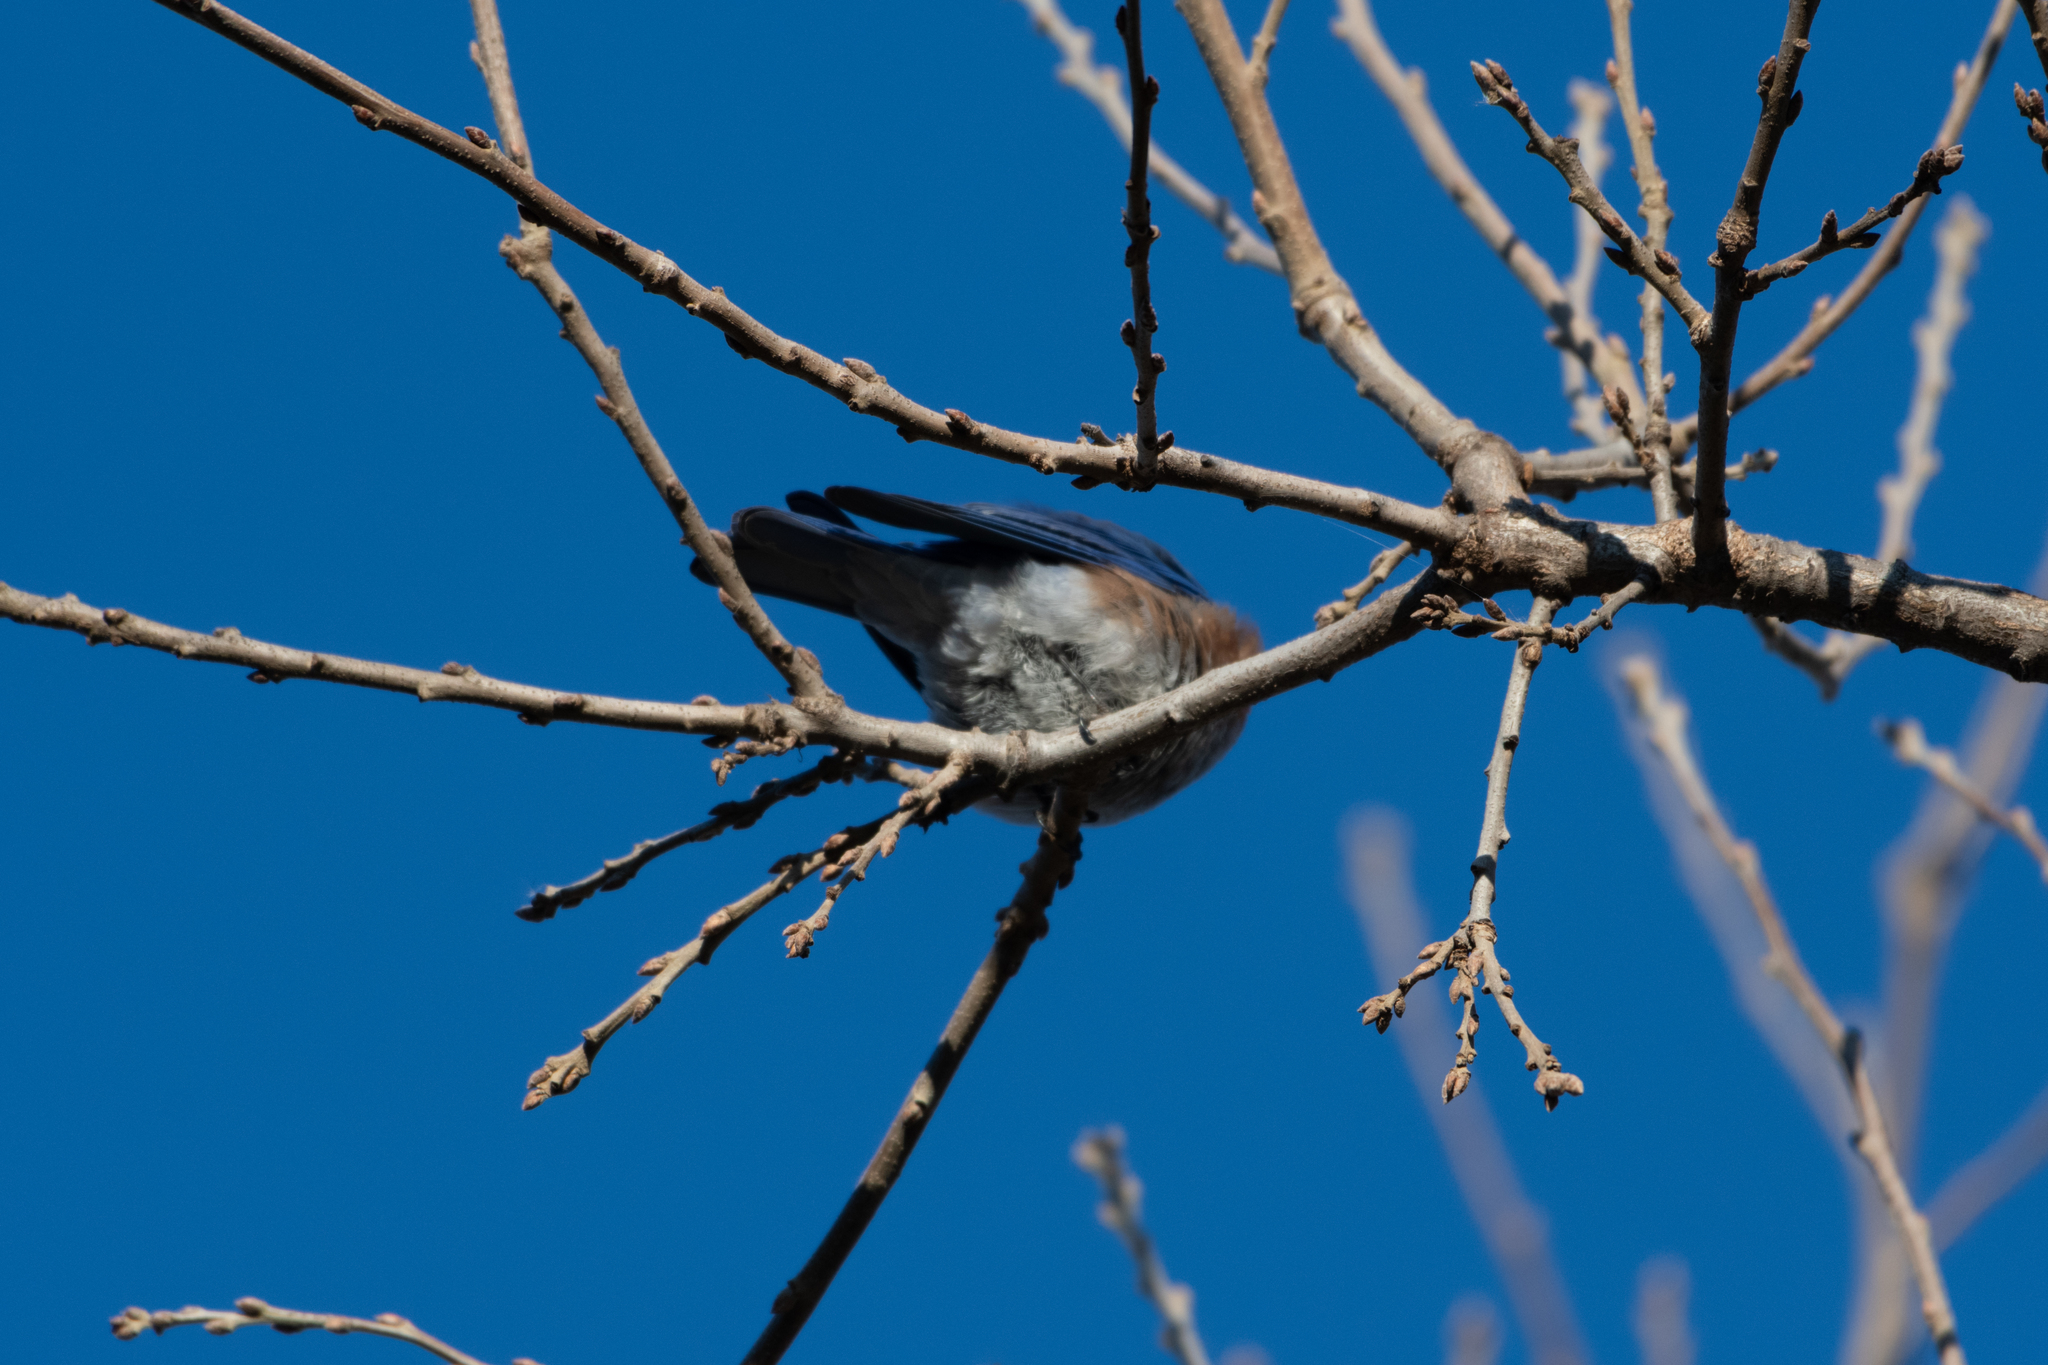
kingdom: Animalia
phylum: Chordata
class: Aves
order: Passeriformes
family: Turdidae
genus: Sialia
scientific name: Sialia mexicana
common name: Western bluebird
